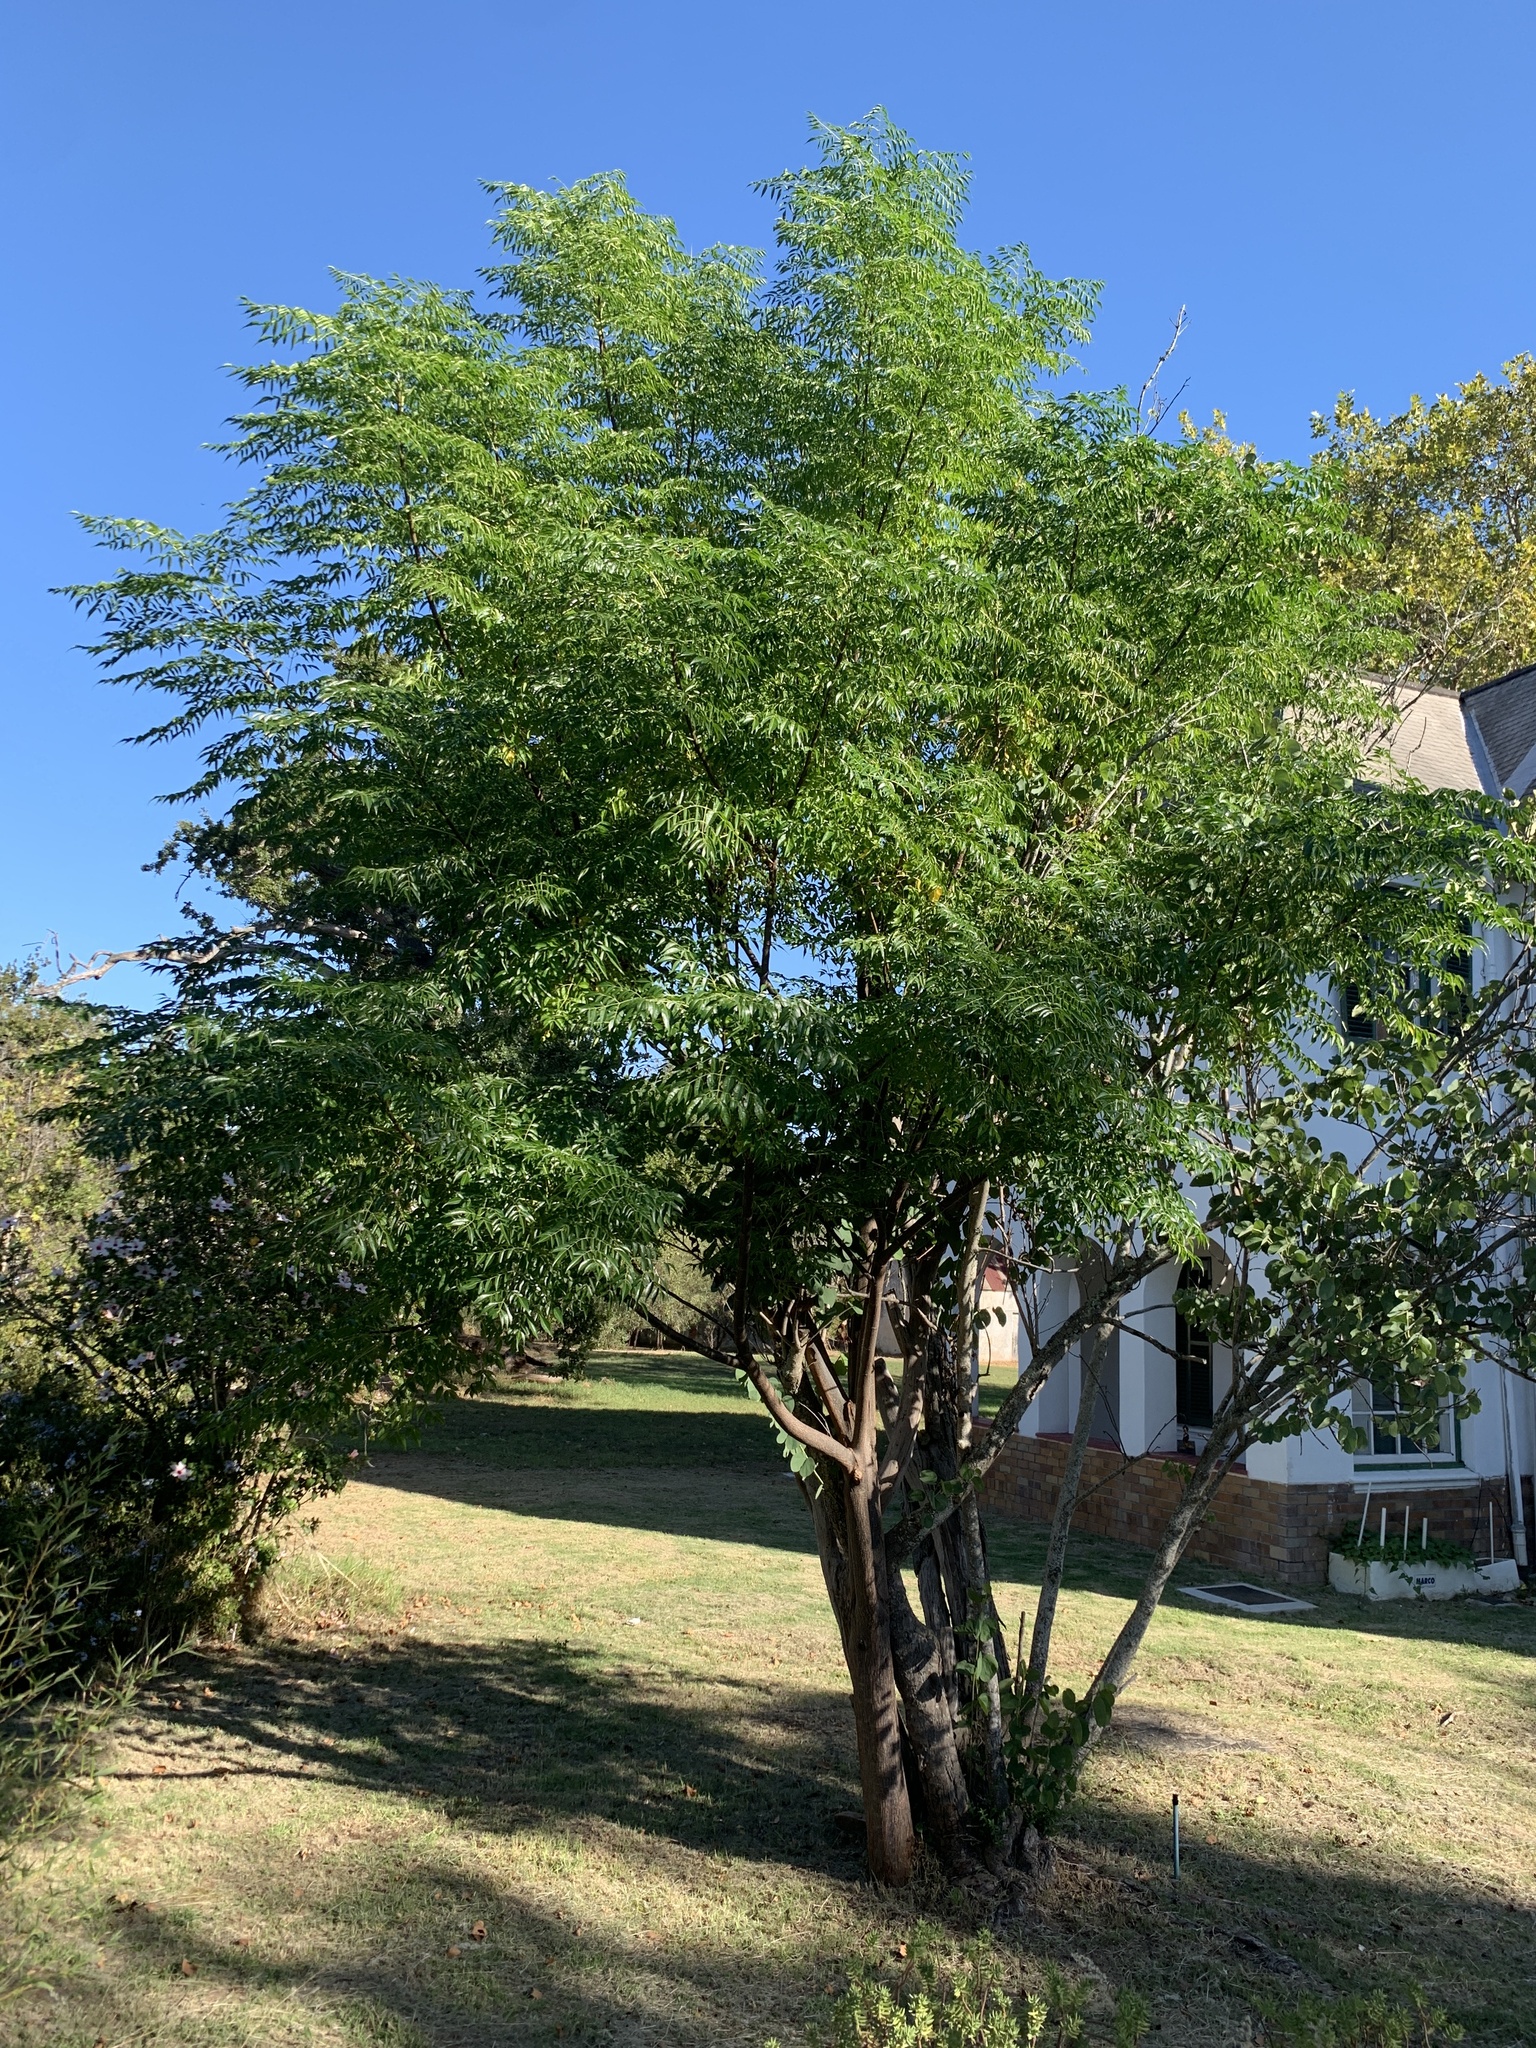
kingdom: Plantae
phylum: Tracheophyta
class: Magnoliopsida
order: Sapindales
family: Meliaceae
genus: Melia
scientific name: Melia azedarach
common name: Chinaberrytree
